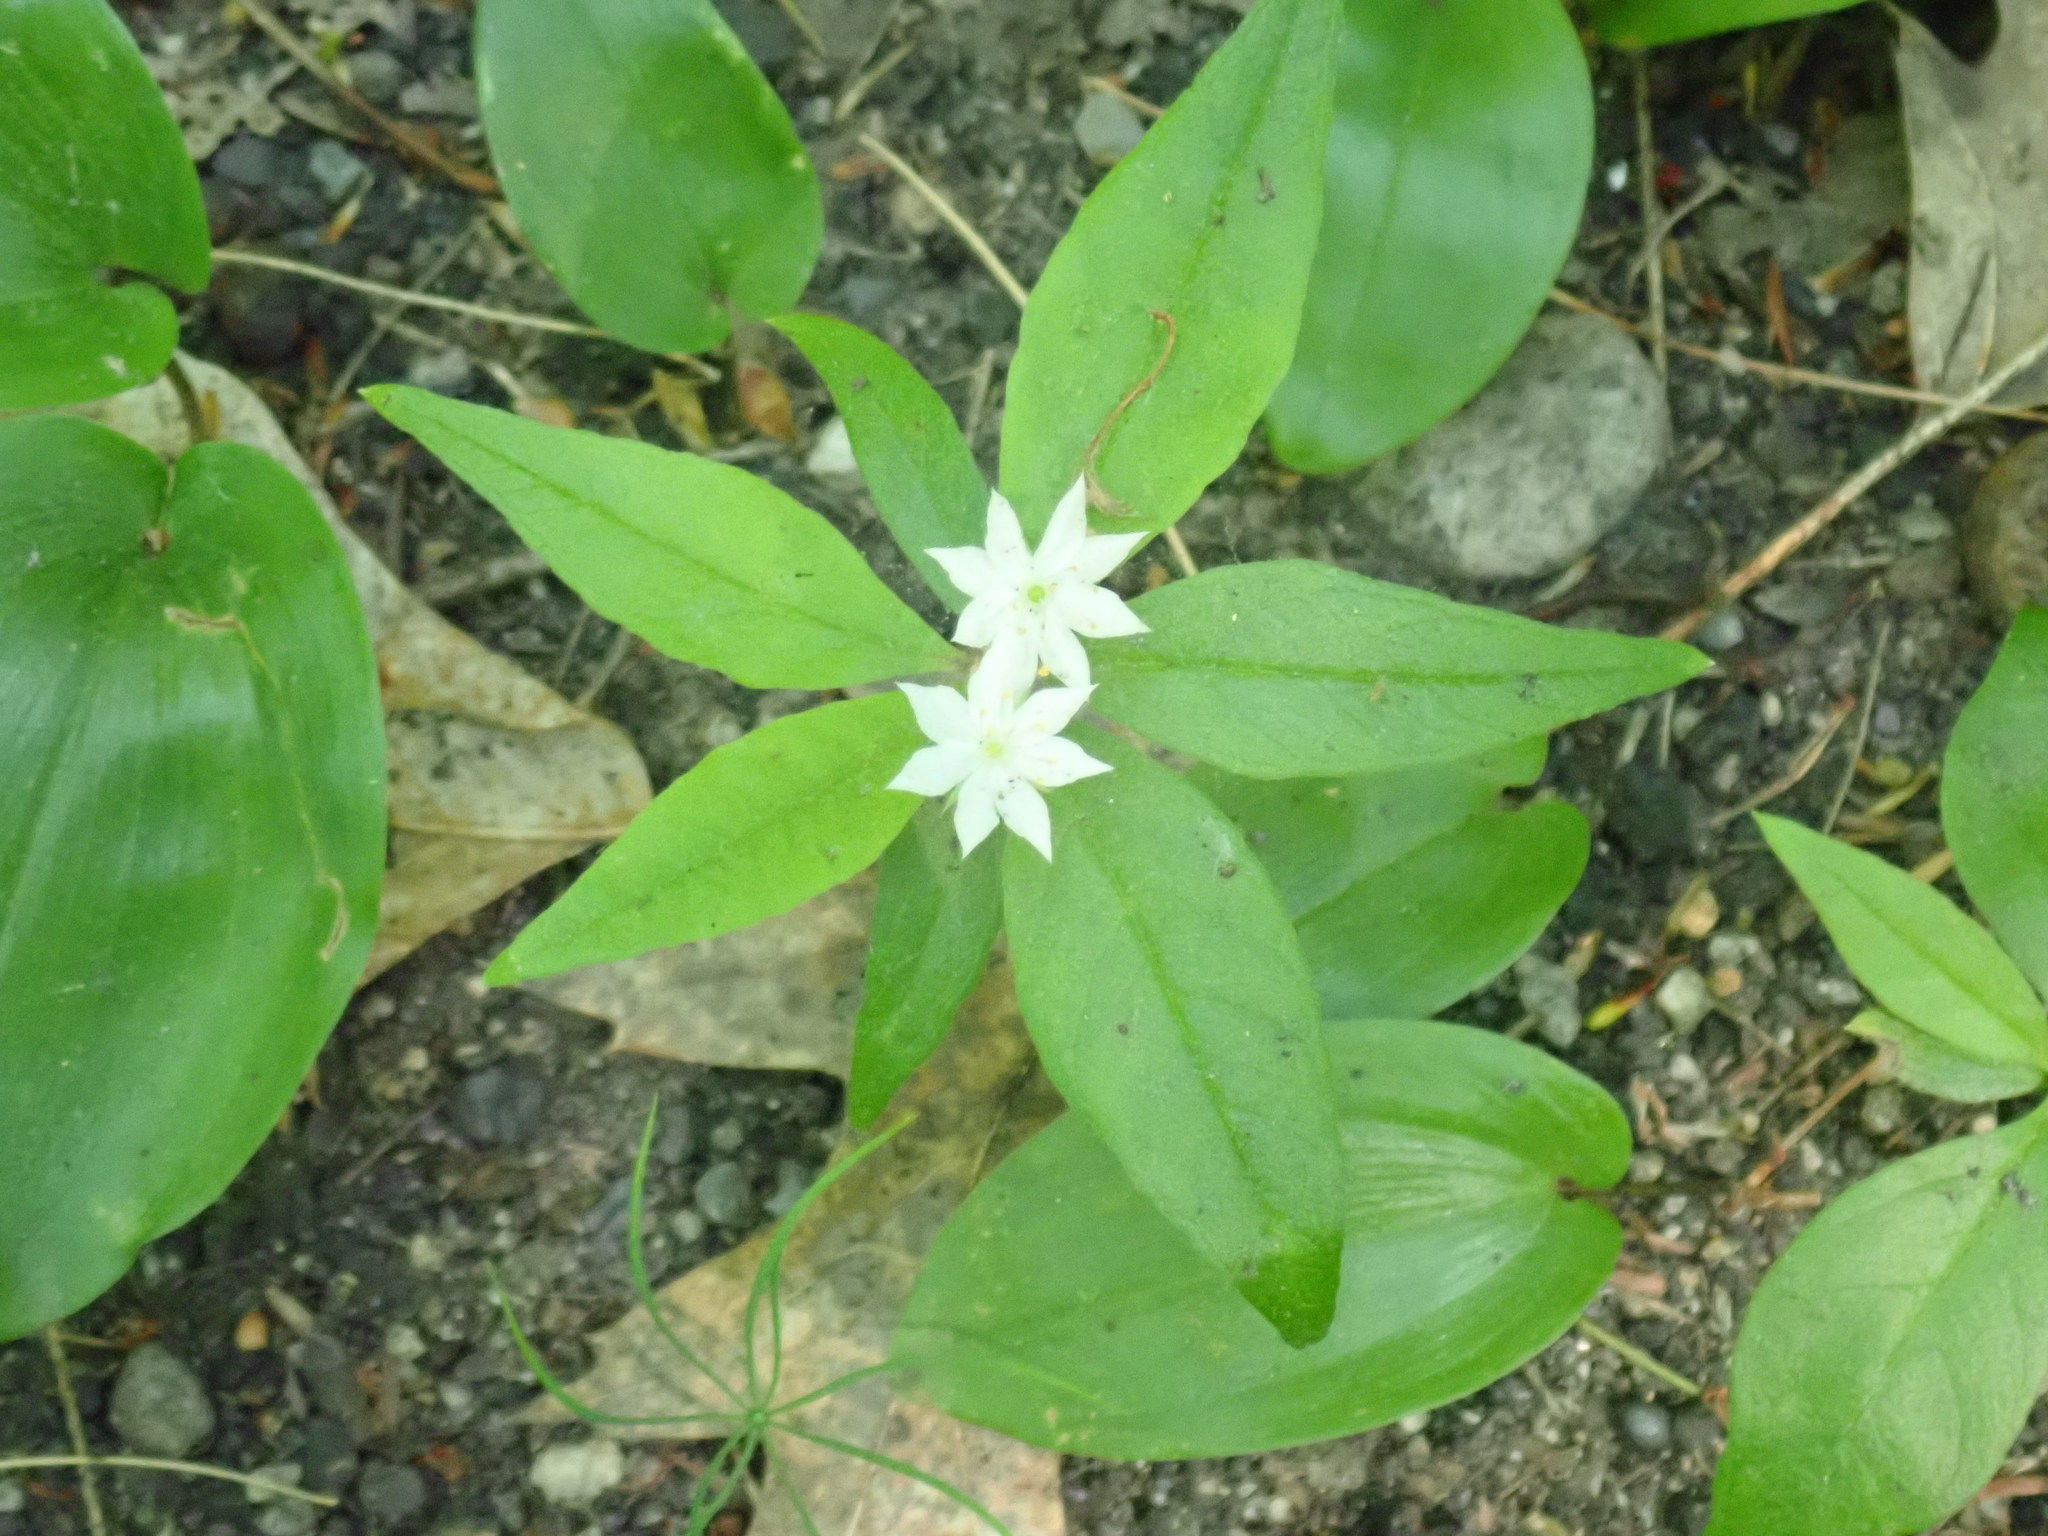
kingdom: Plantae
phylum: Tracheophyta
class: Magnoliopsida
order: Ericales
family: Primulaceae
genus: Lysimachia
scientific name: Lysimachia borealis
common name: American starflower
